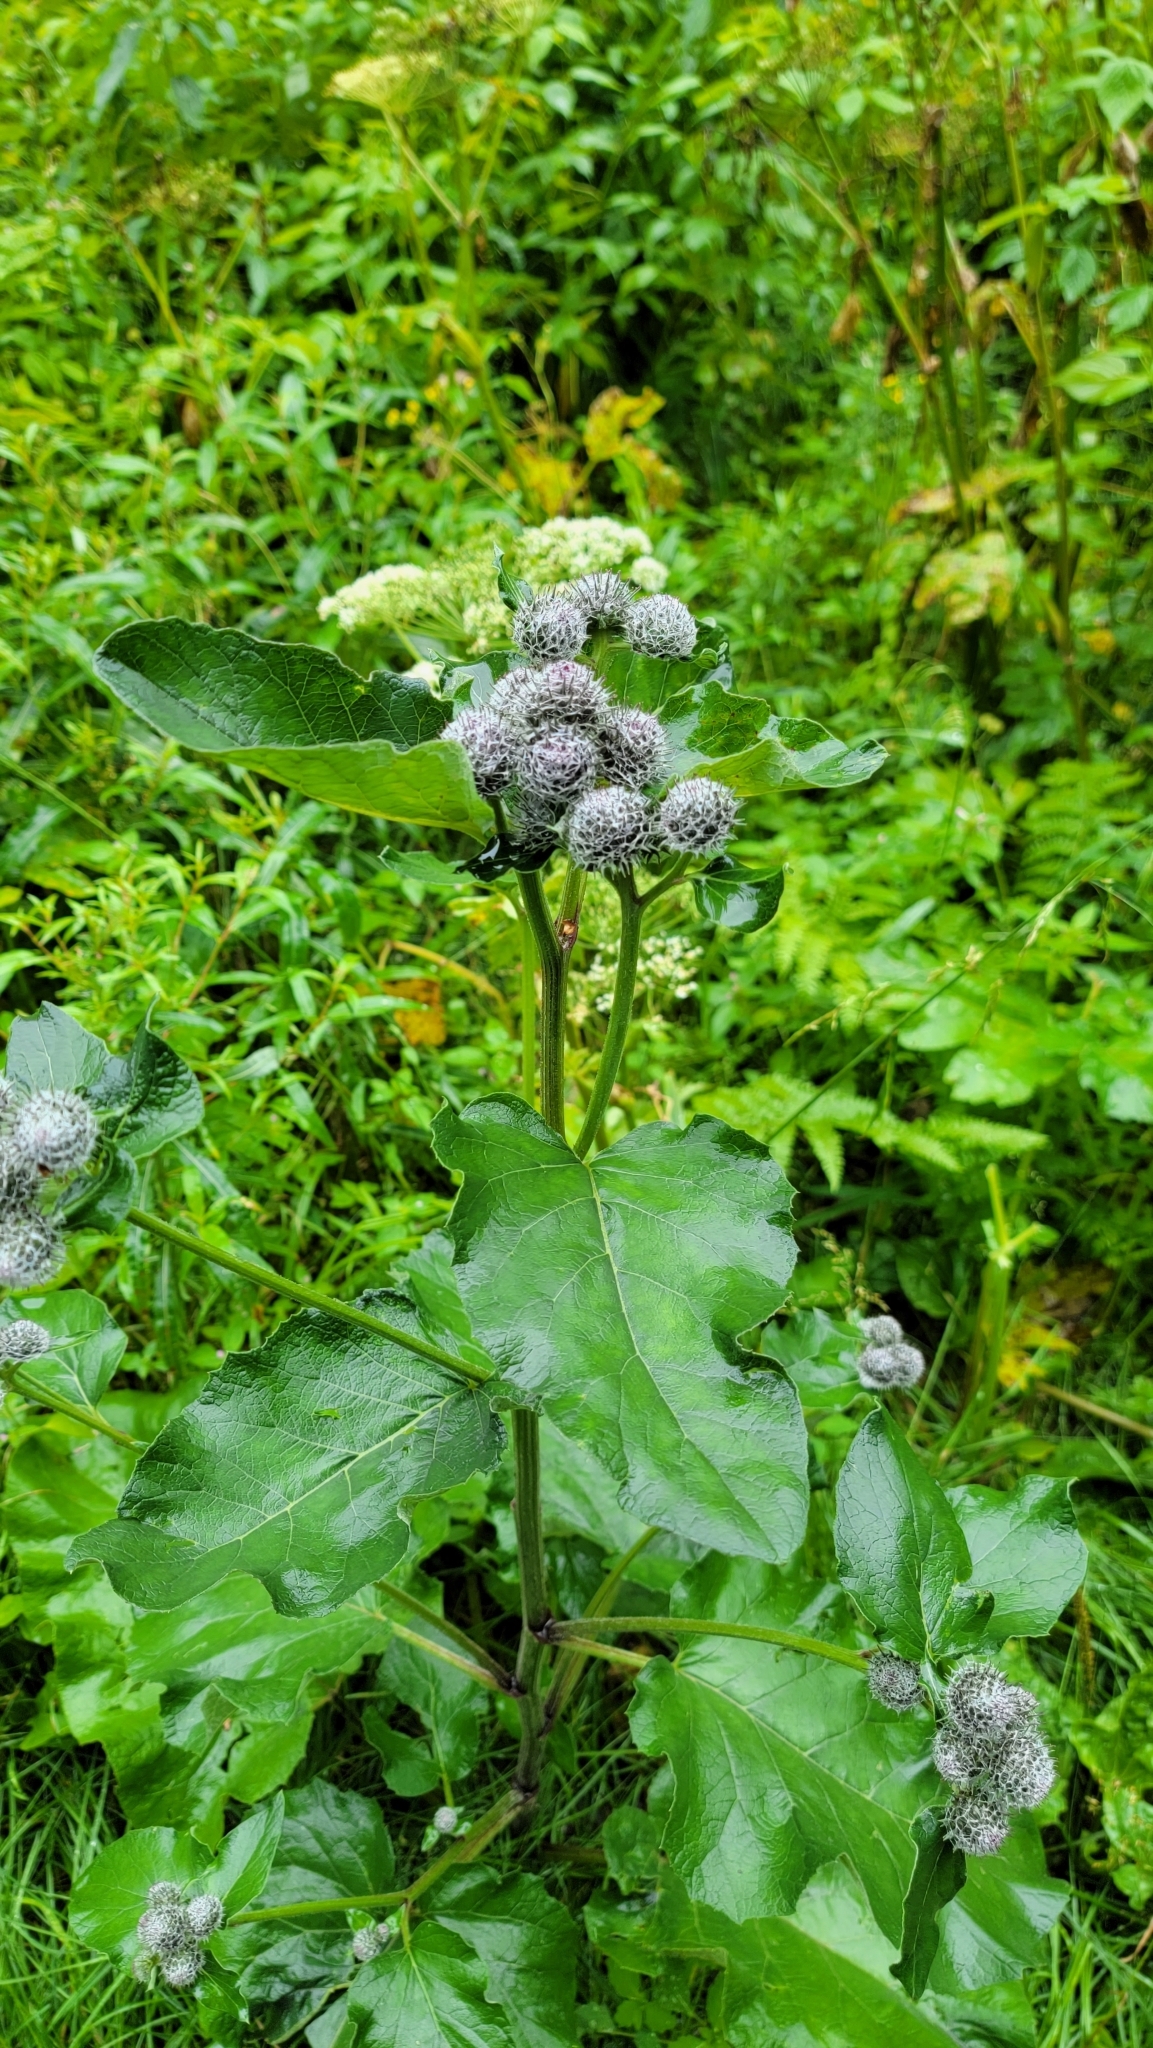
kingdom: Plantae
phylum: Tracheophyta
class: Magnoliopsida
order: Asterales
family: Asteraceae
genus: Arctium
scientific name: Arctium tomentosum
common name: Woolly burdock
